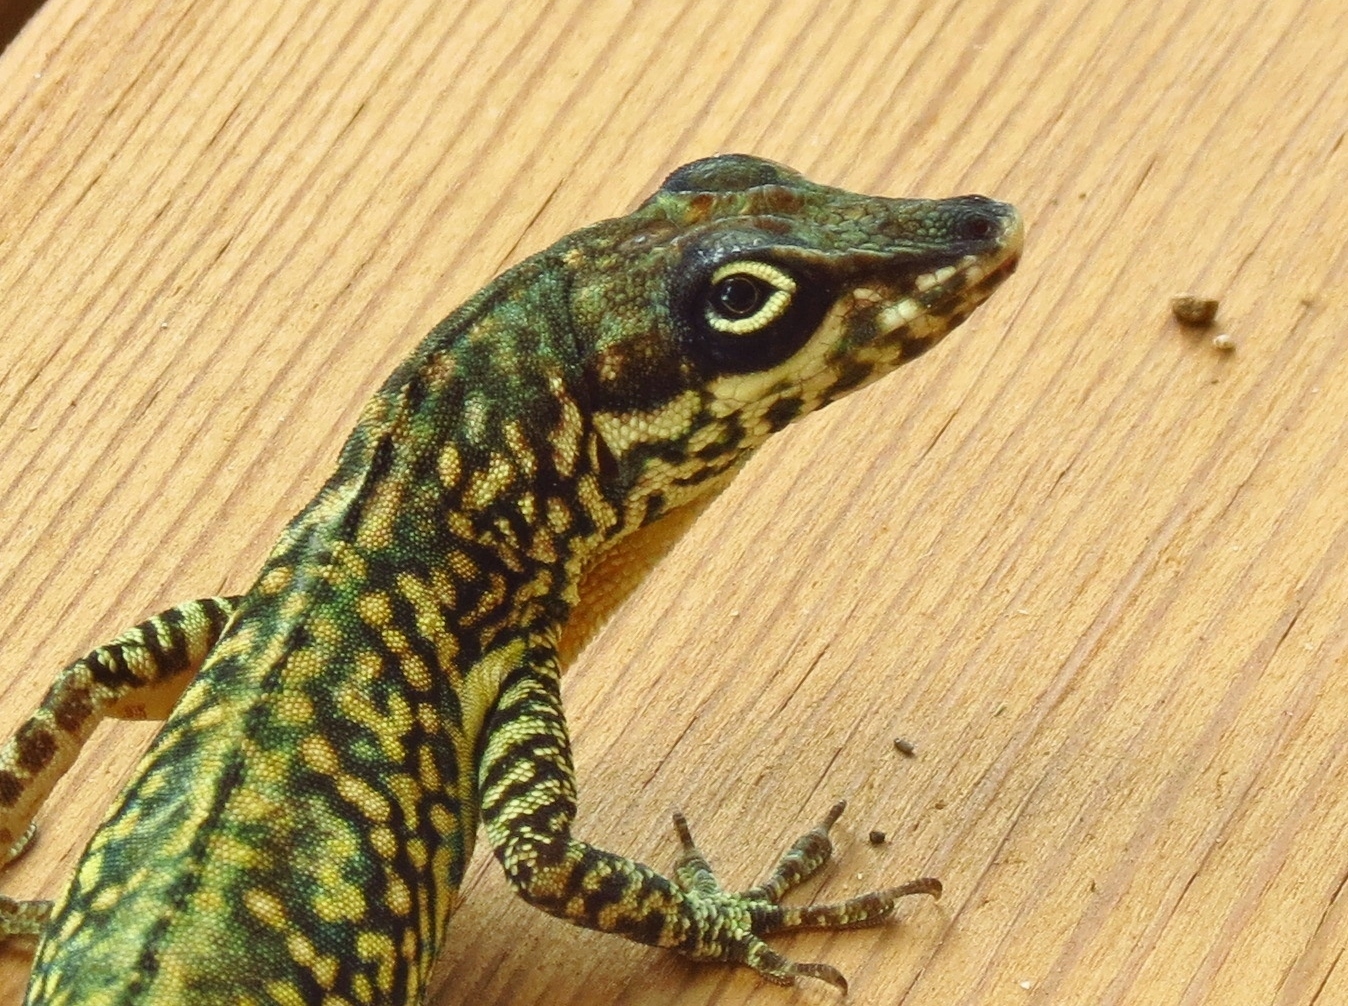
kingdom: Animalia
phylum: Chordata
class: Squamata
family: Dactyloidae
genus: Anolis
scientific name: Anolis roquet
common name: Martinique anole
